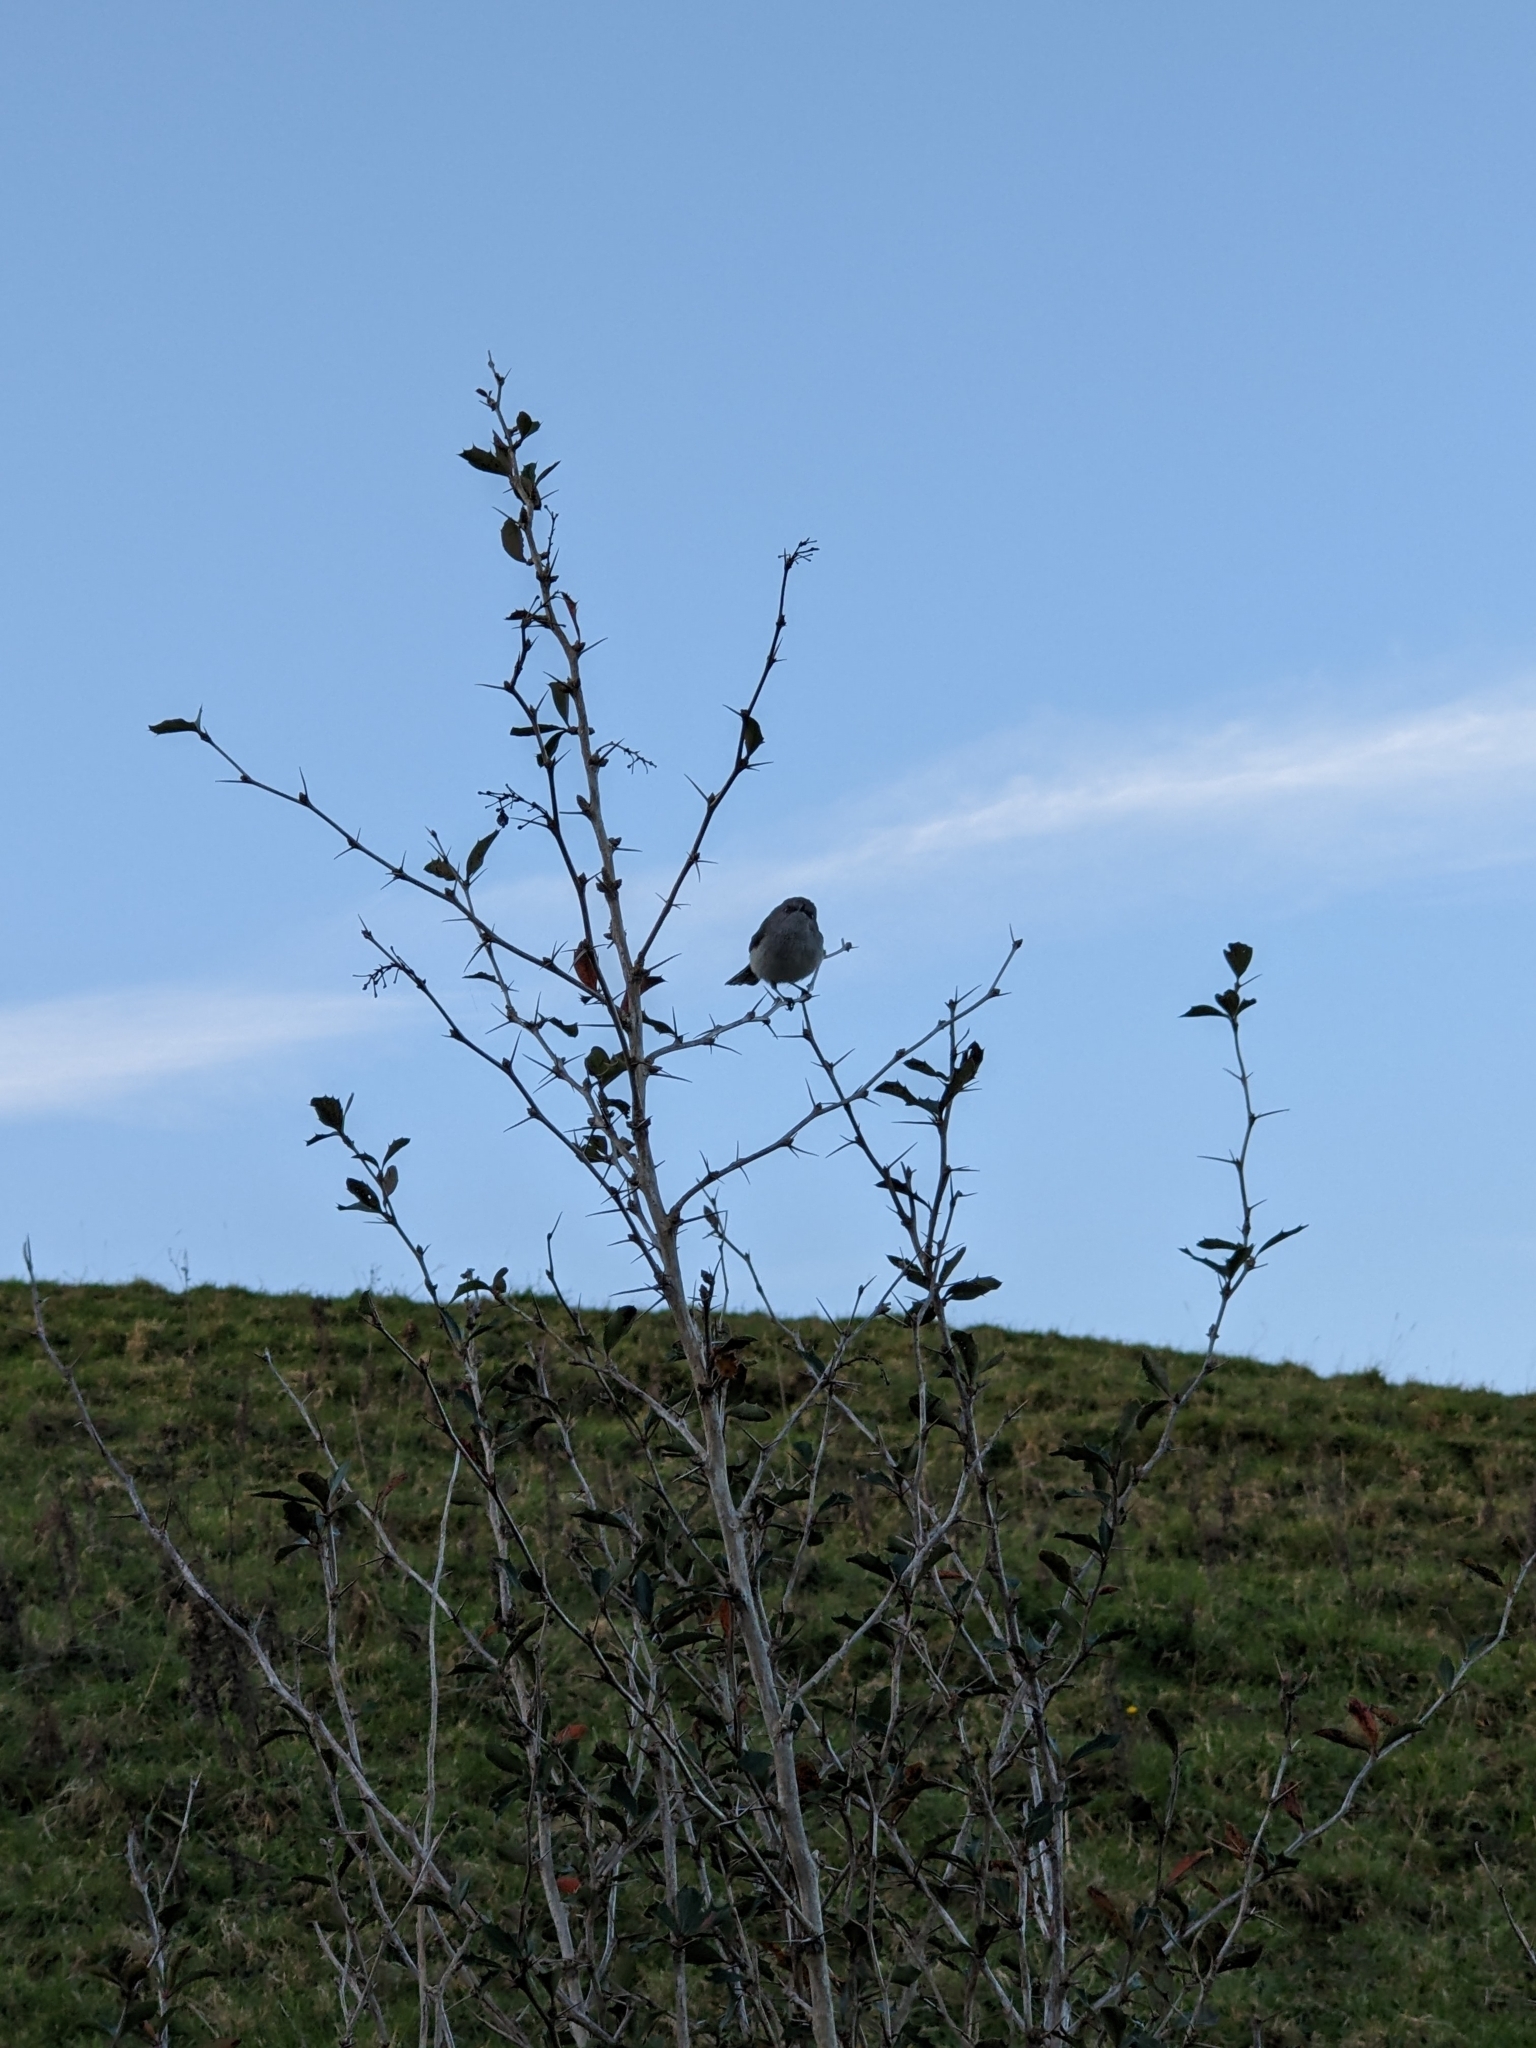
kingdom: Animalia
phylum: Chordata
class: Aves
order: Passeriformes
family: Acanthizidae
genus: Gerygone
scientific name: Gerygone igata
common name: Grey gerygone
